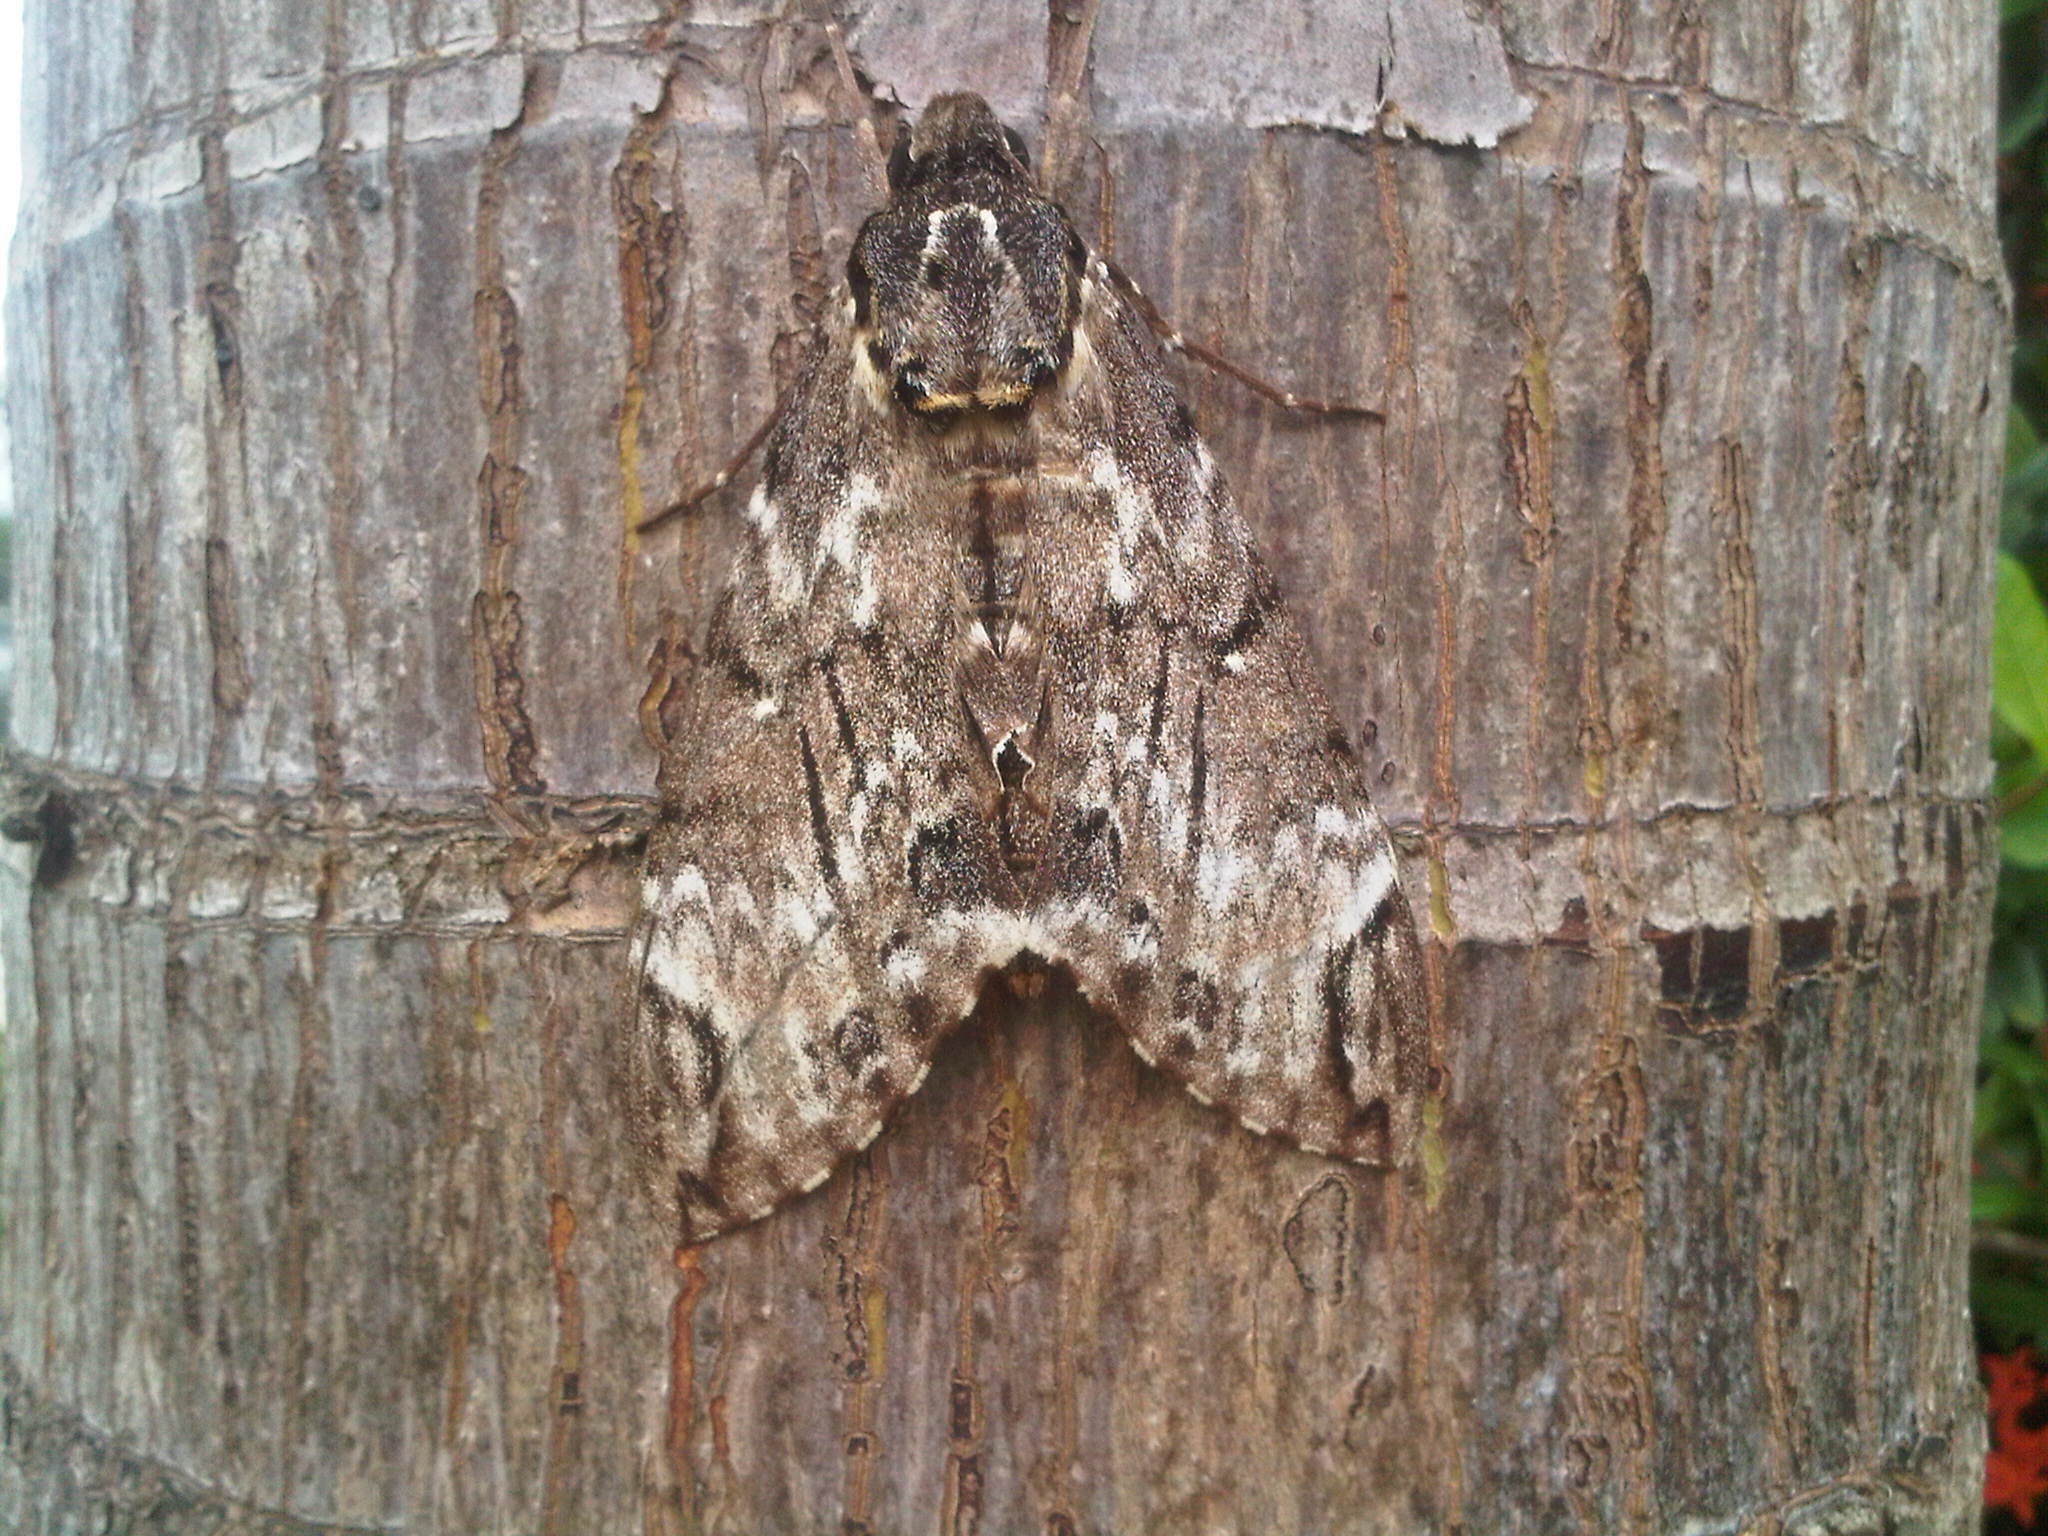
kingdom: Animalia
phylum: Arthropoda
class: Insecta
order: Lepidoptera
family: Sphingidae
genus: Psilogramma
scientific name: Psilogramma casuarinae
